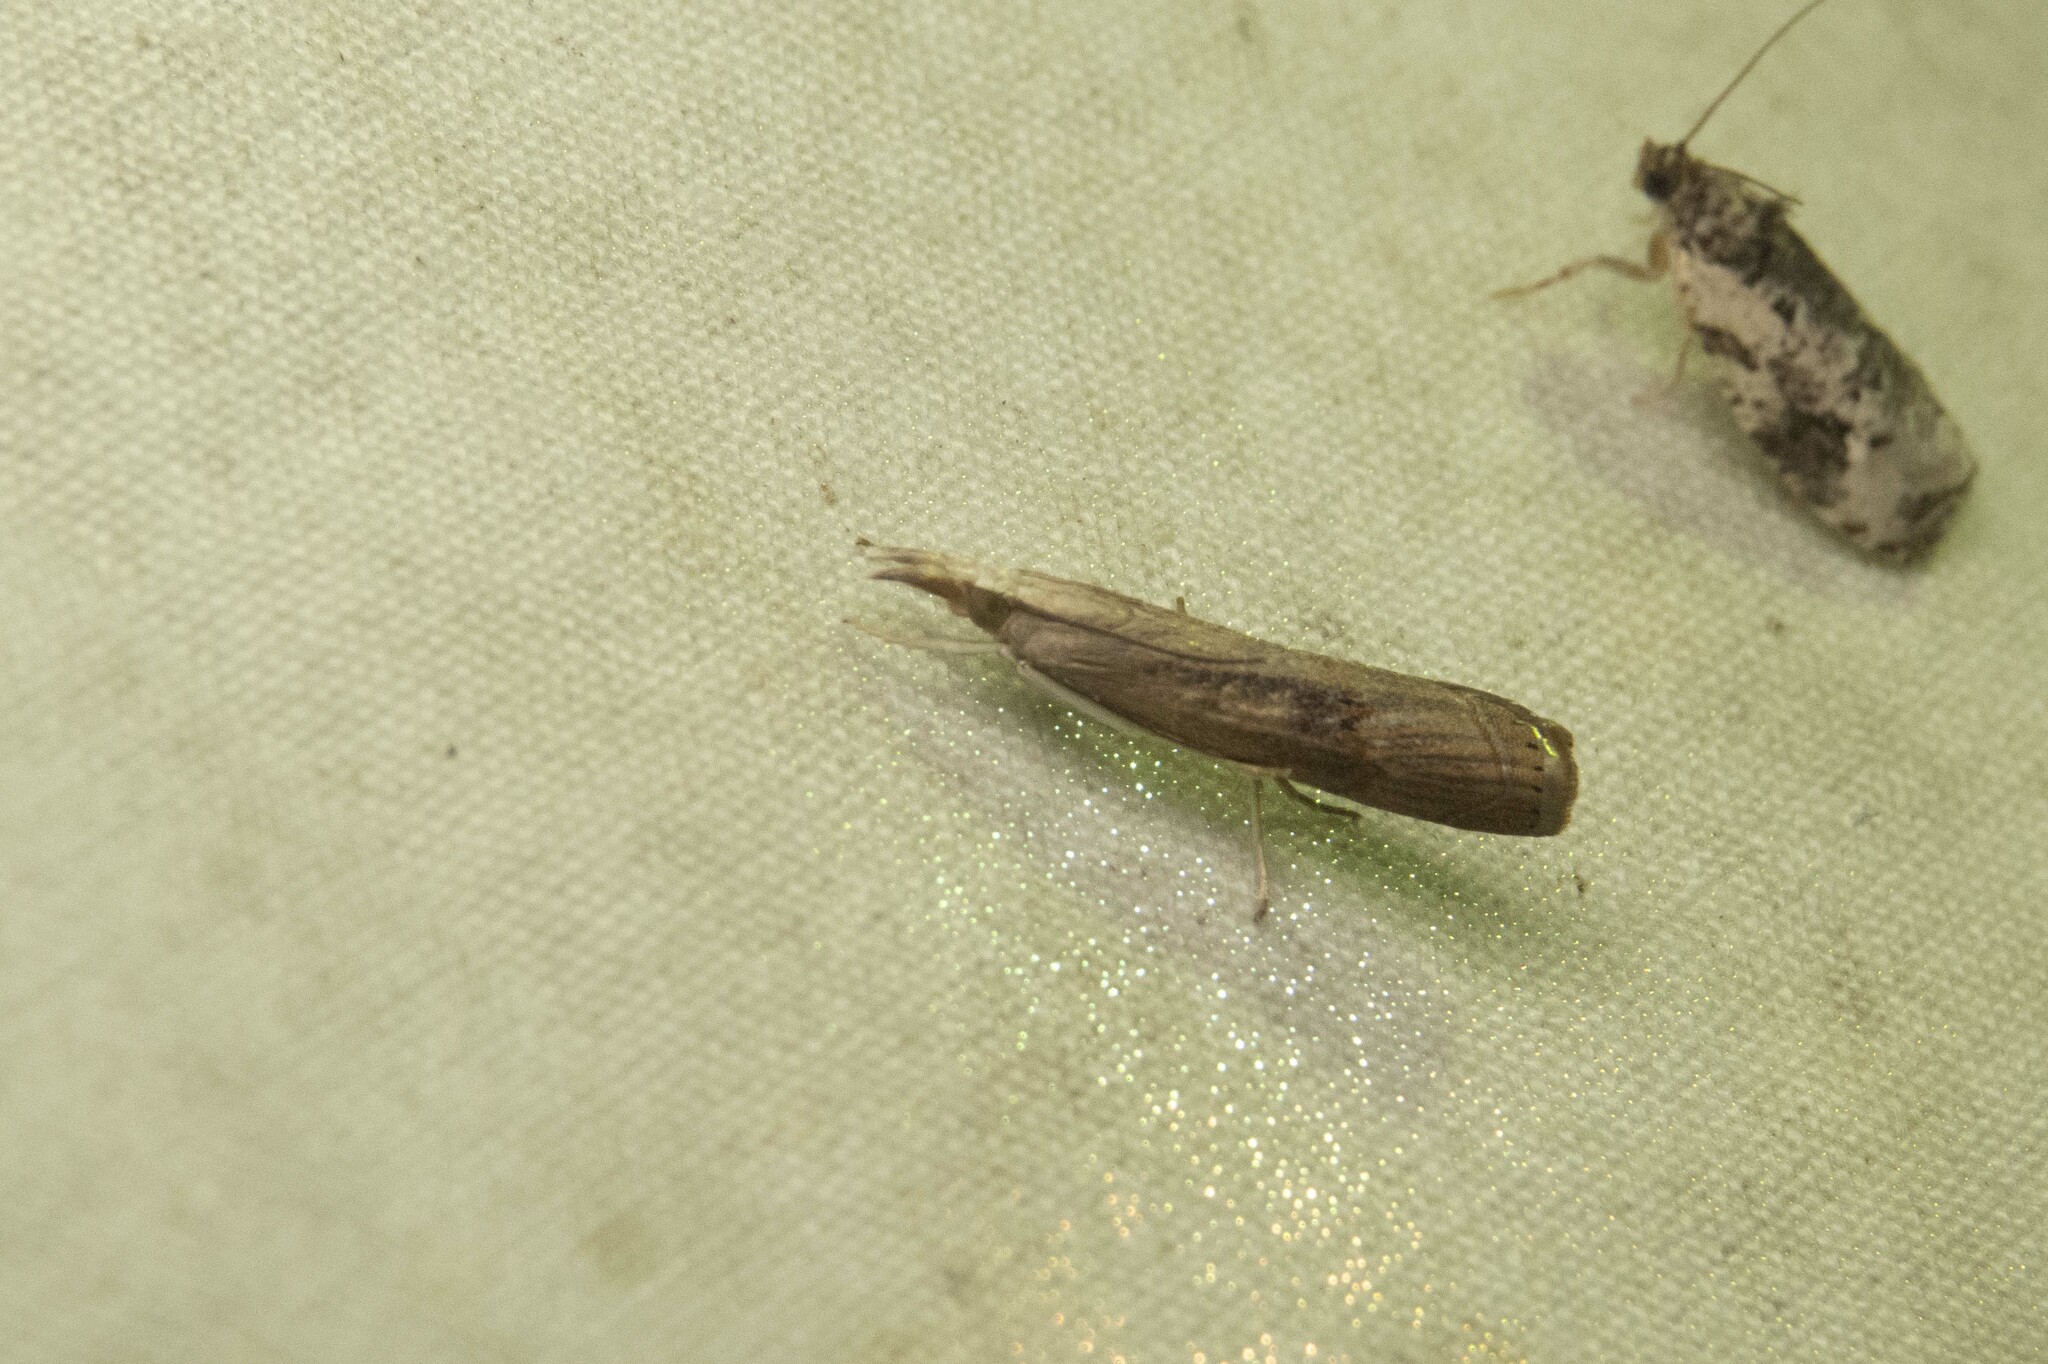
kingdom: Animalia
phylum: Arthropoda
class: Insecta
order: Lepidoptera
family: Crambidae
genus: Parapediasia
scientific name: Parapediasia teterellus
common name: Bluegrass webworm moth
